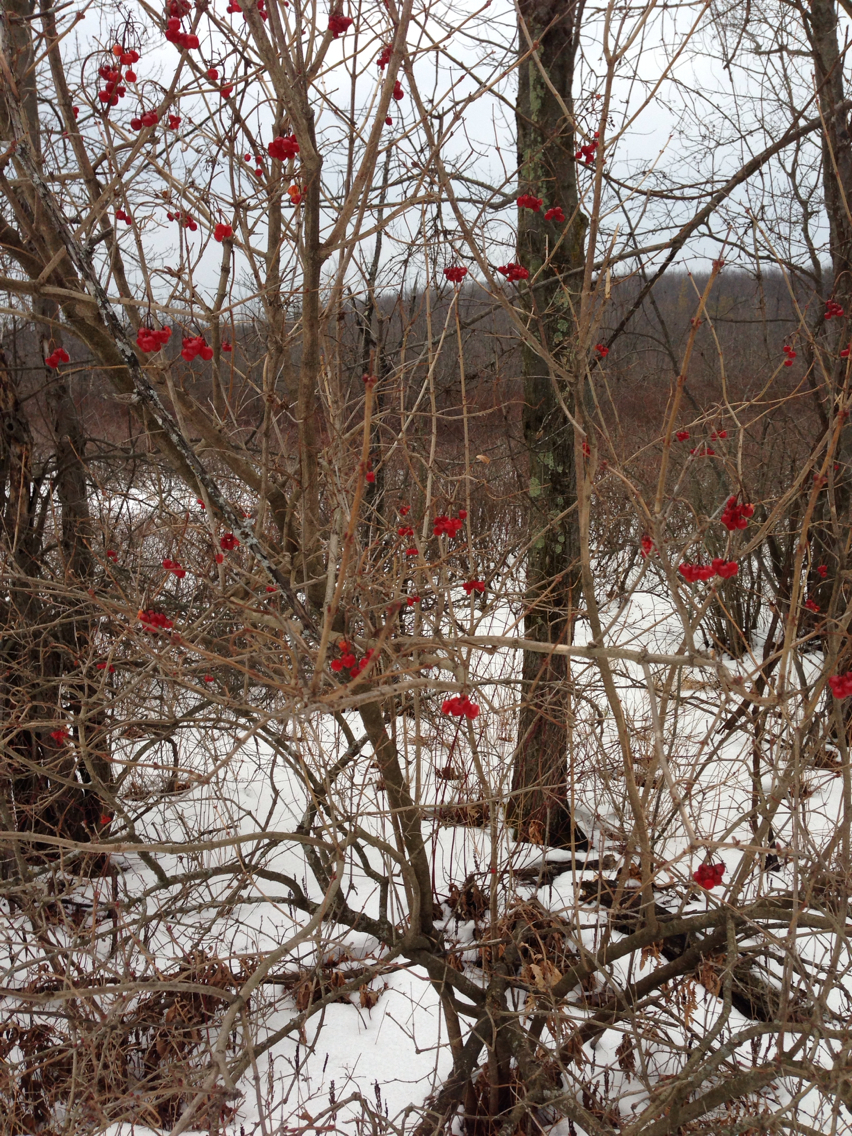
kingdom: Plantae
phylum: Tracheophyta
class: Magnoliopsida
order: Dipsacales
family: Viburnaceae
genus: Viburnum
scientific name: Viburnum opulus
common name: Guelder-rose
